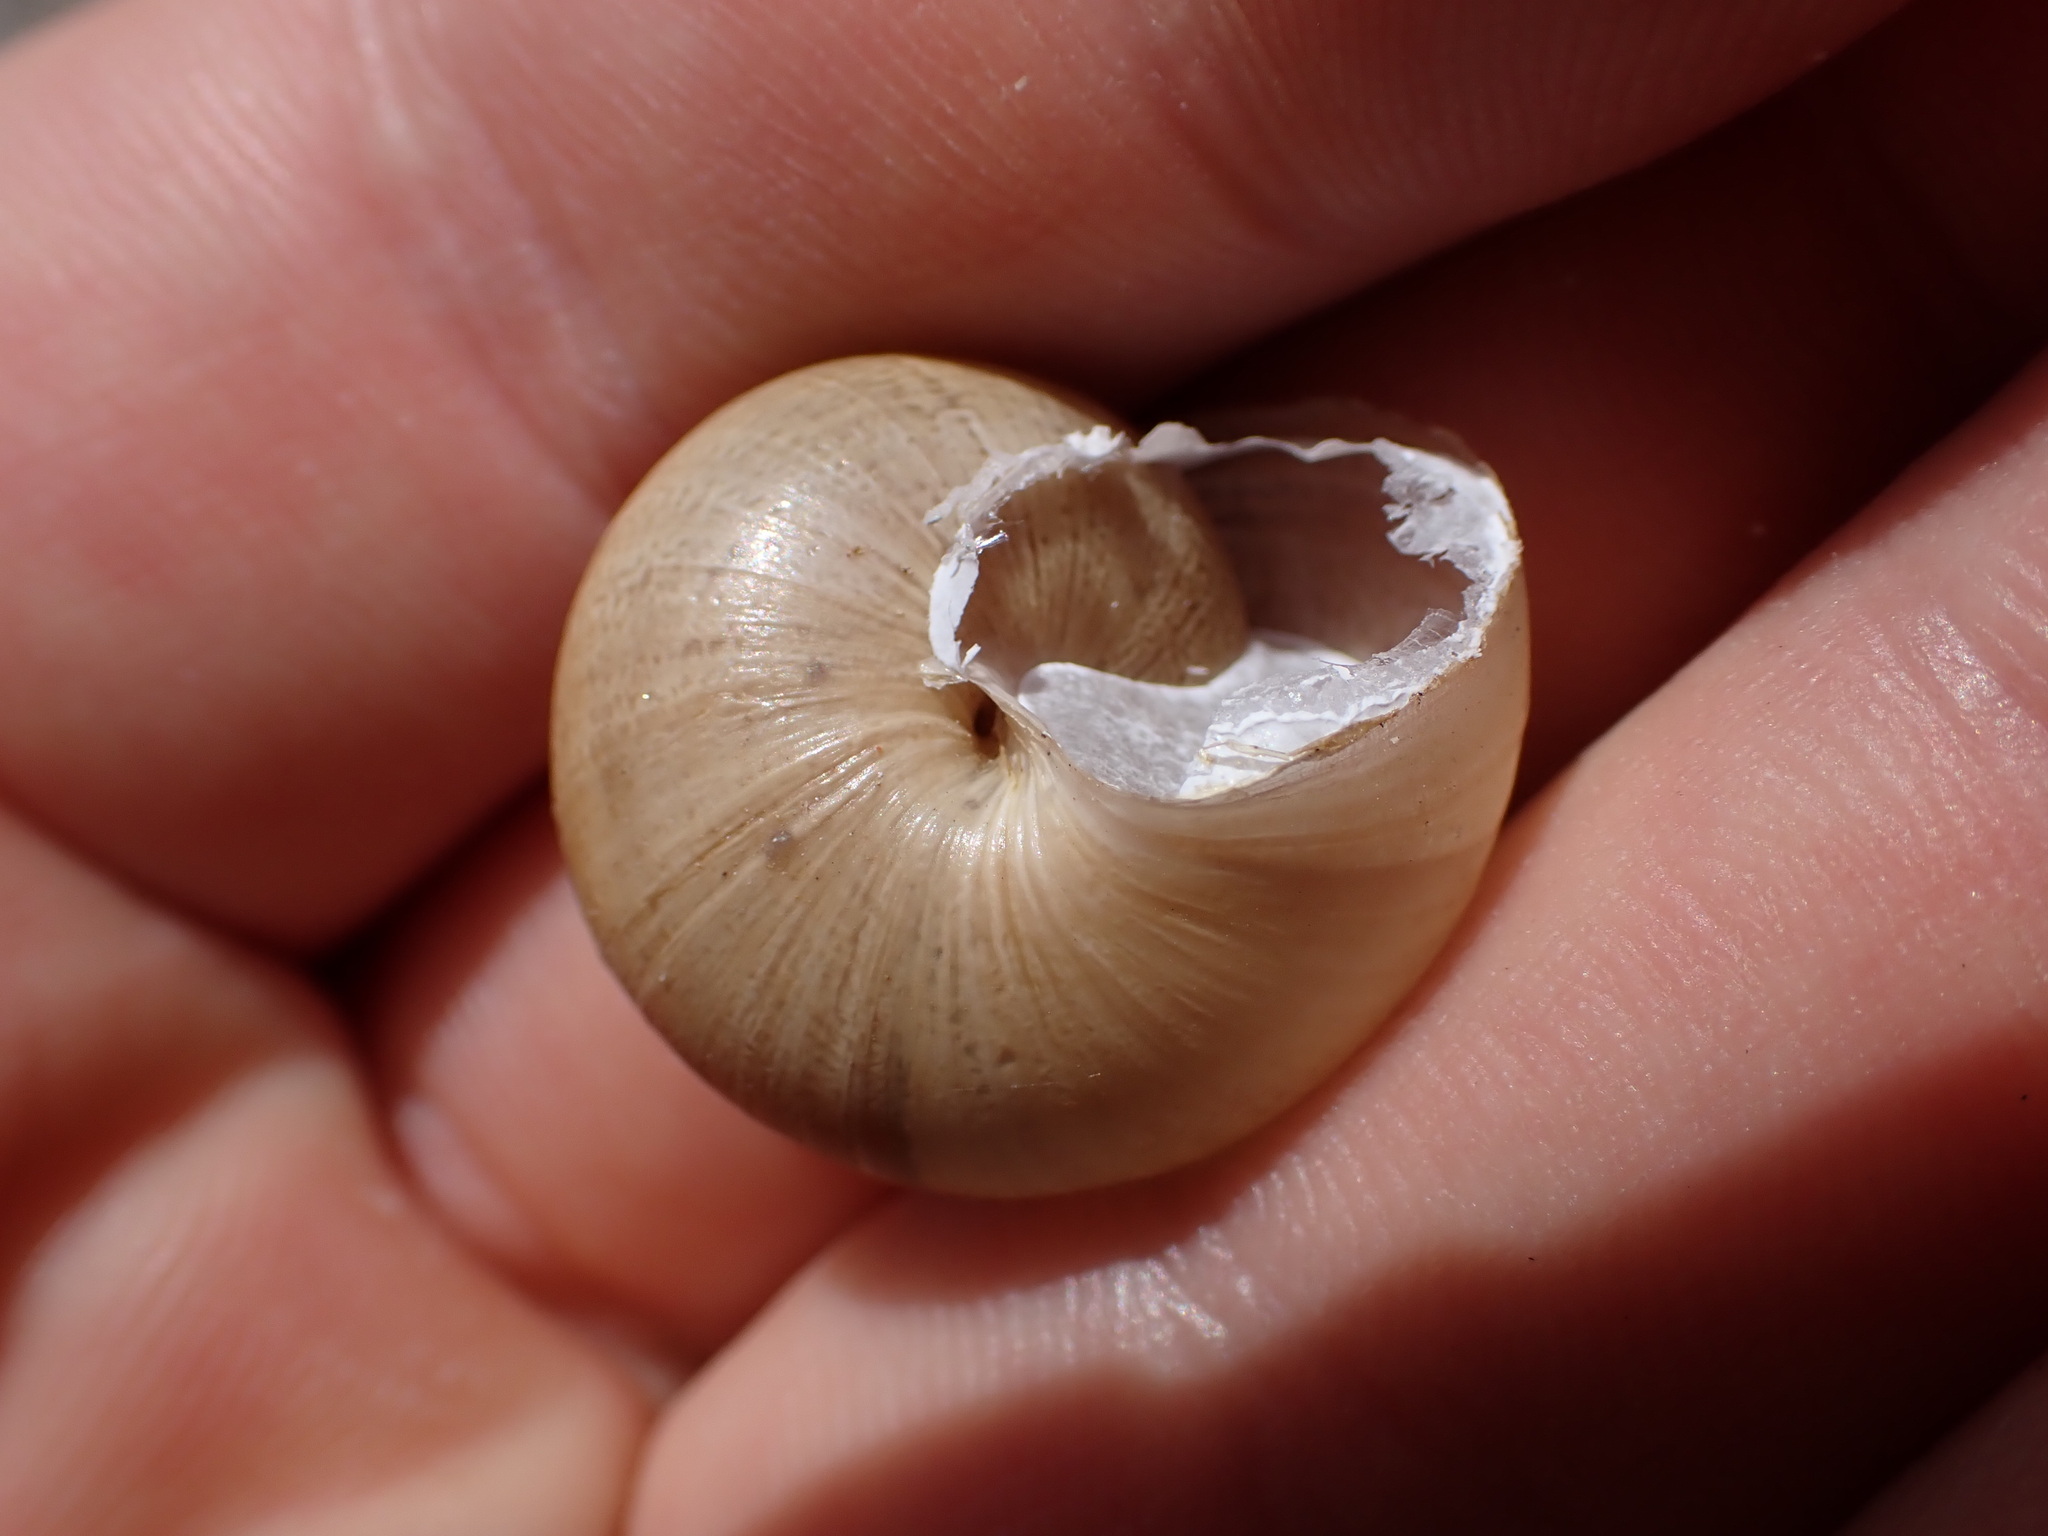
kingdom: Animalia
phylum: Mollusca
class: Gastropoda
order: Stylommatophora
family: Helicidae
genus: Eobania
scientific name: Eobania vermiculata
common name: Chocolateband snail
